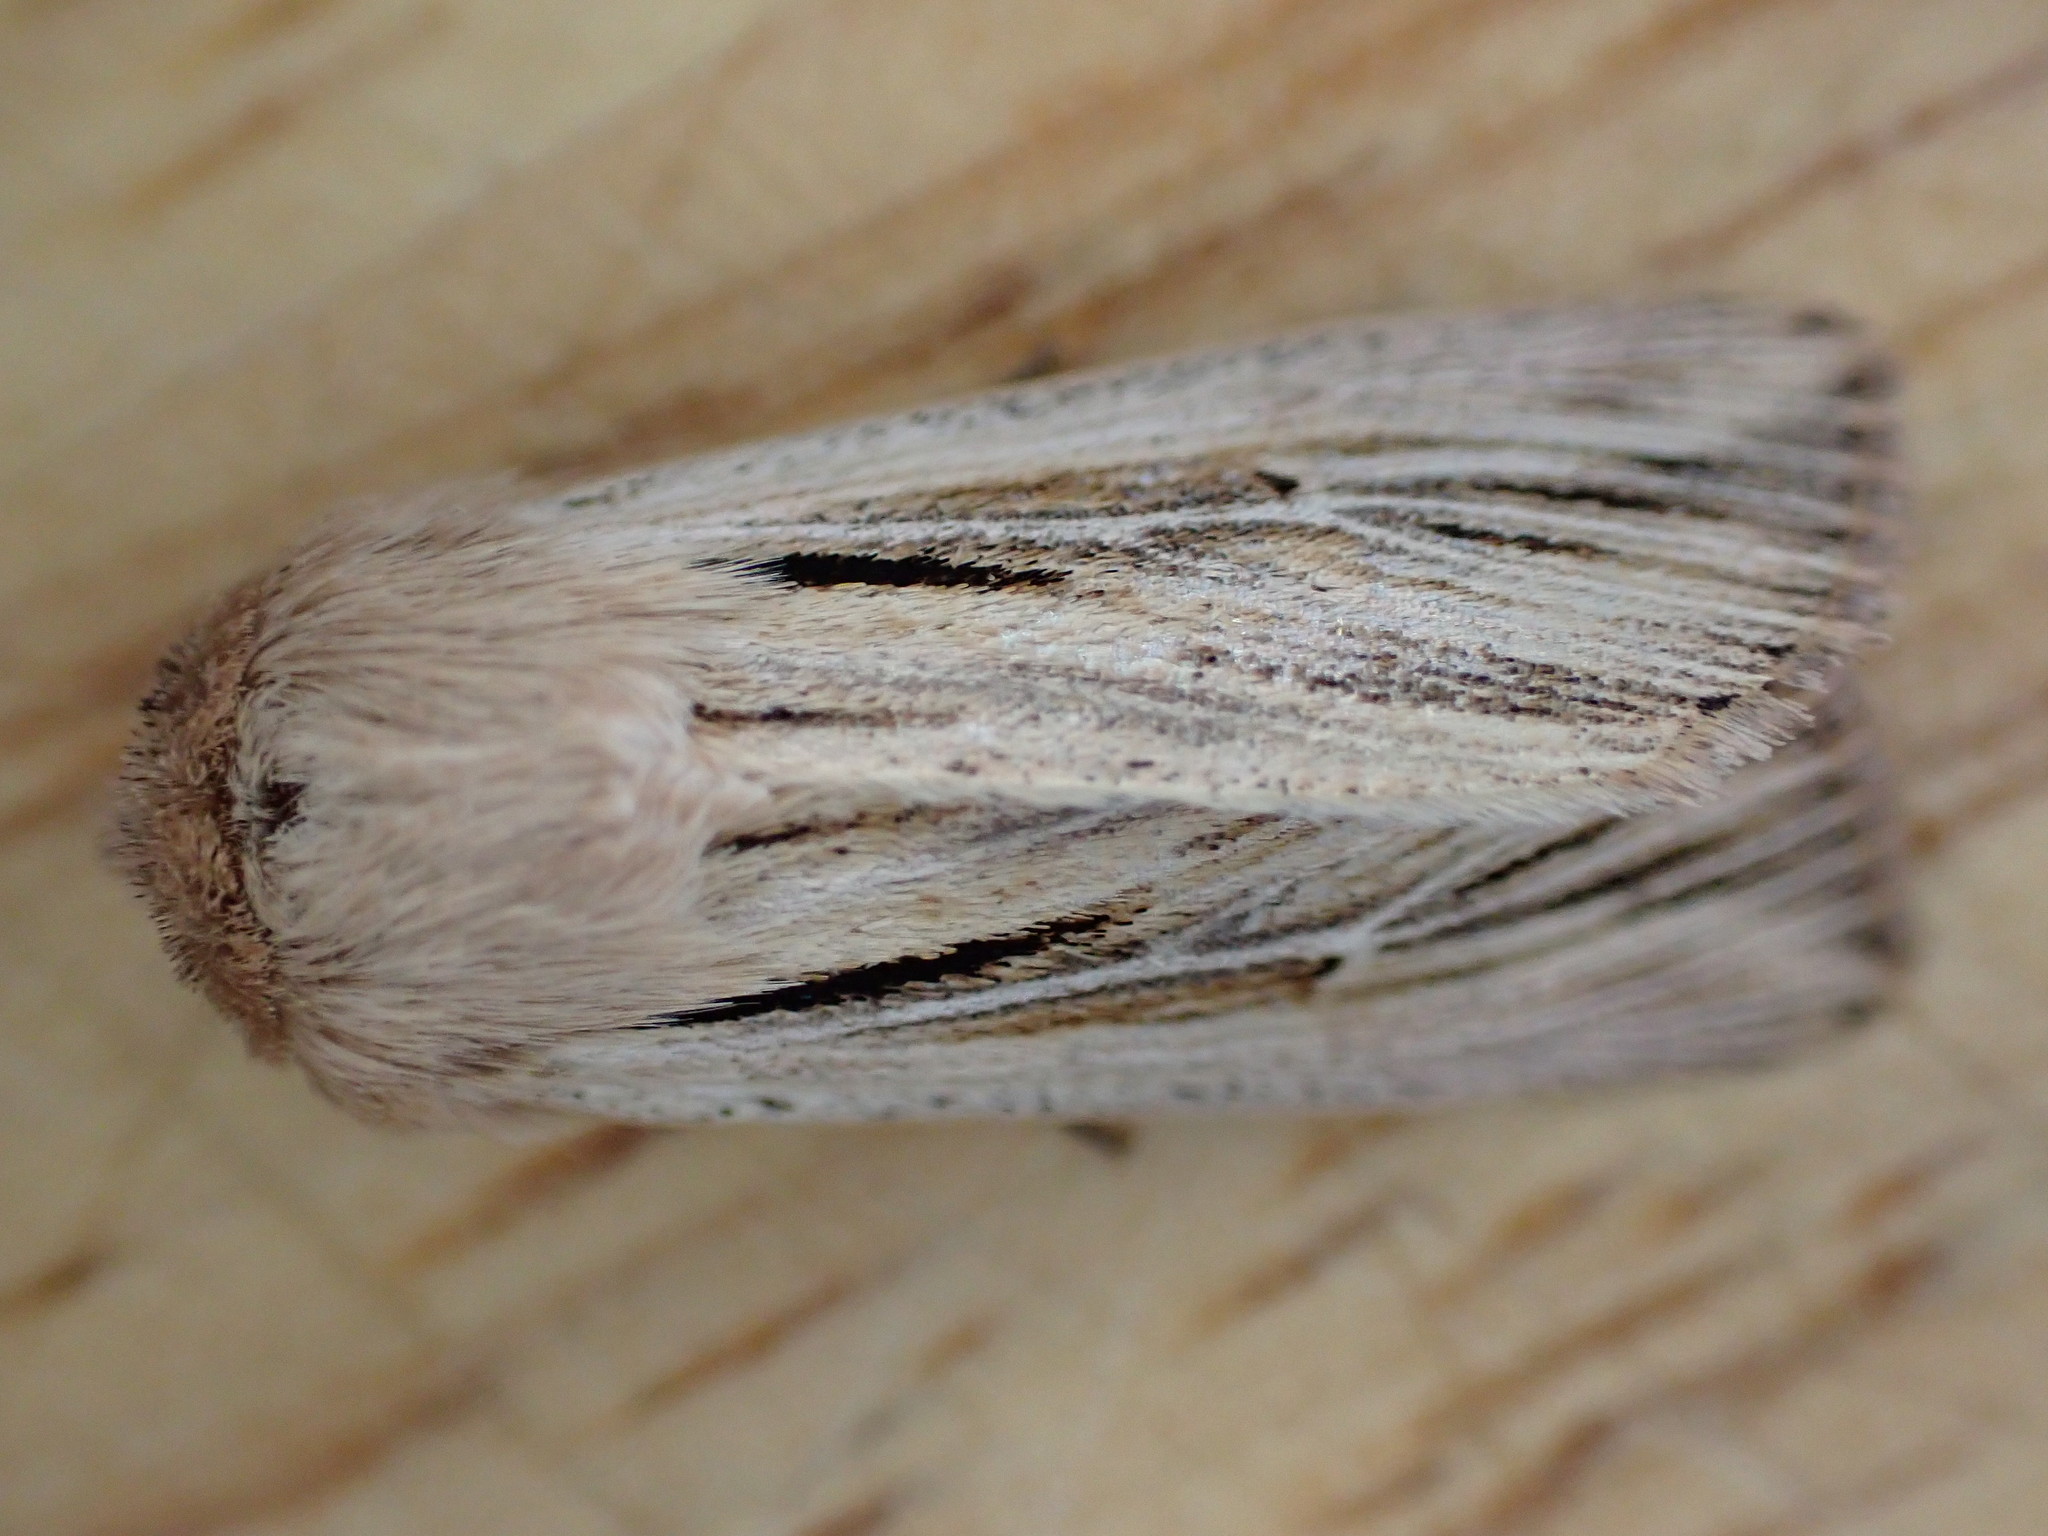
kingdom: Animalia
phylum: Arthropoda
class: Insecta
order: Lepidoptera
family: Noctuidae
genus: Leucania
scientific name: Leucania comma
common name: Shoulder-striped wainscot
